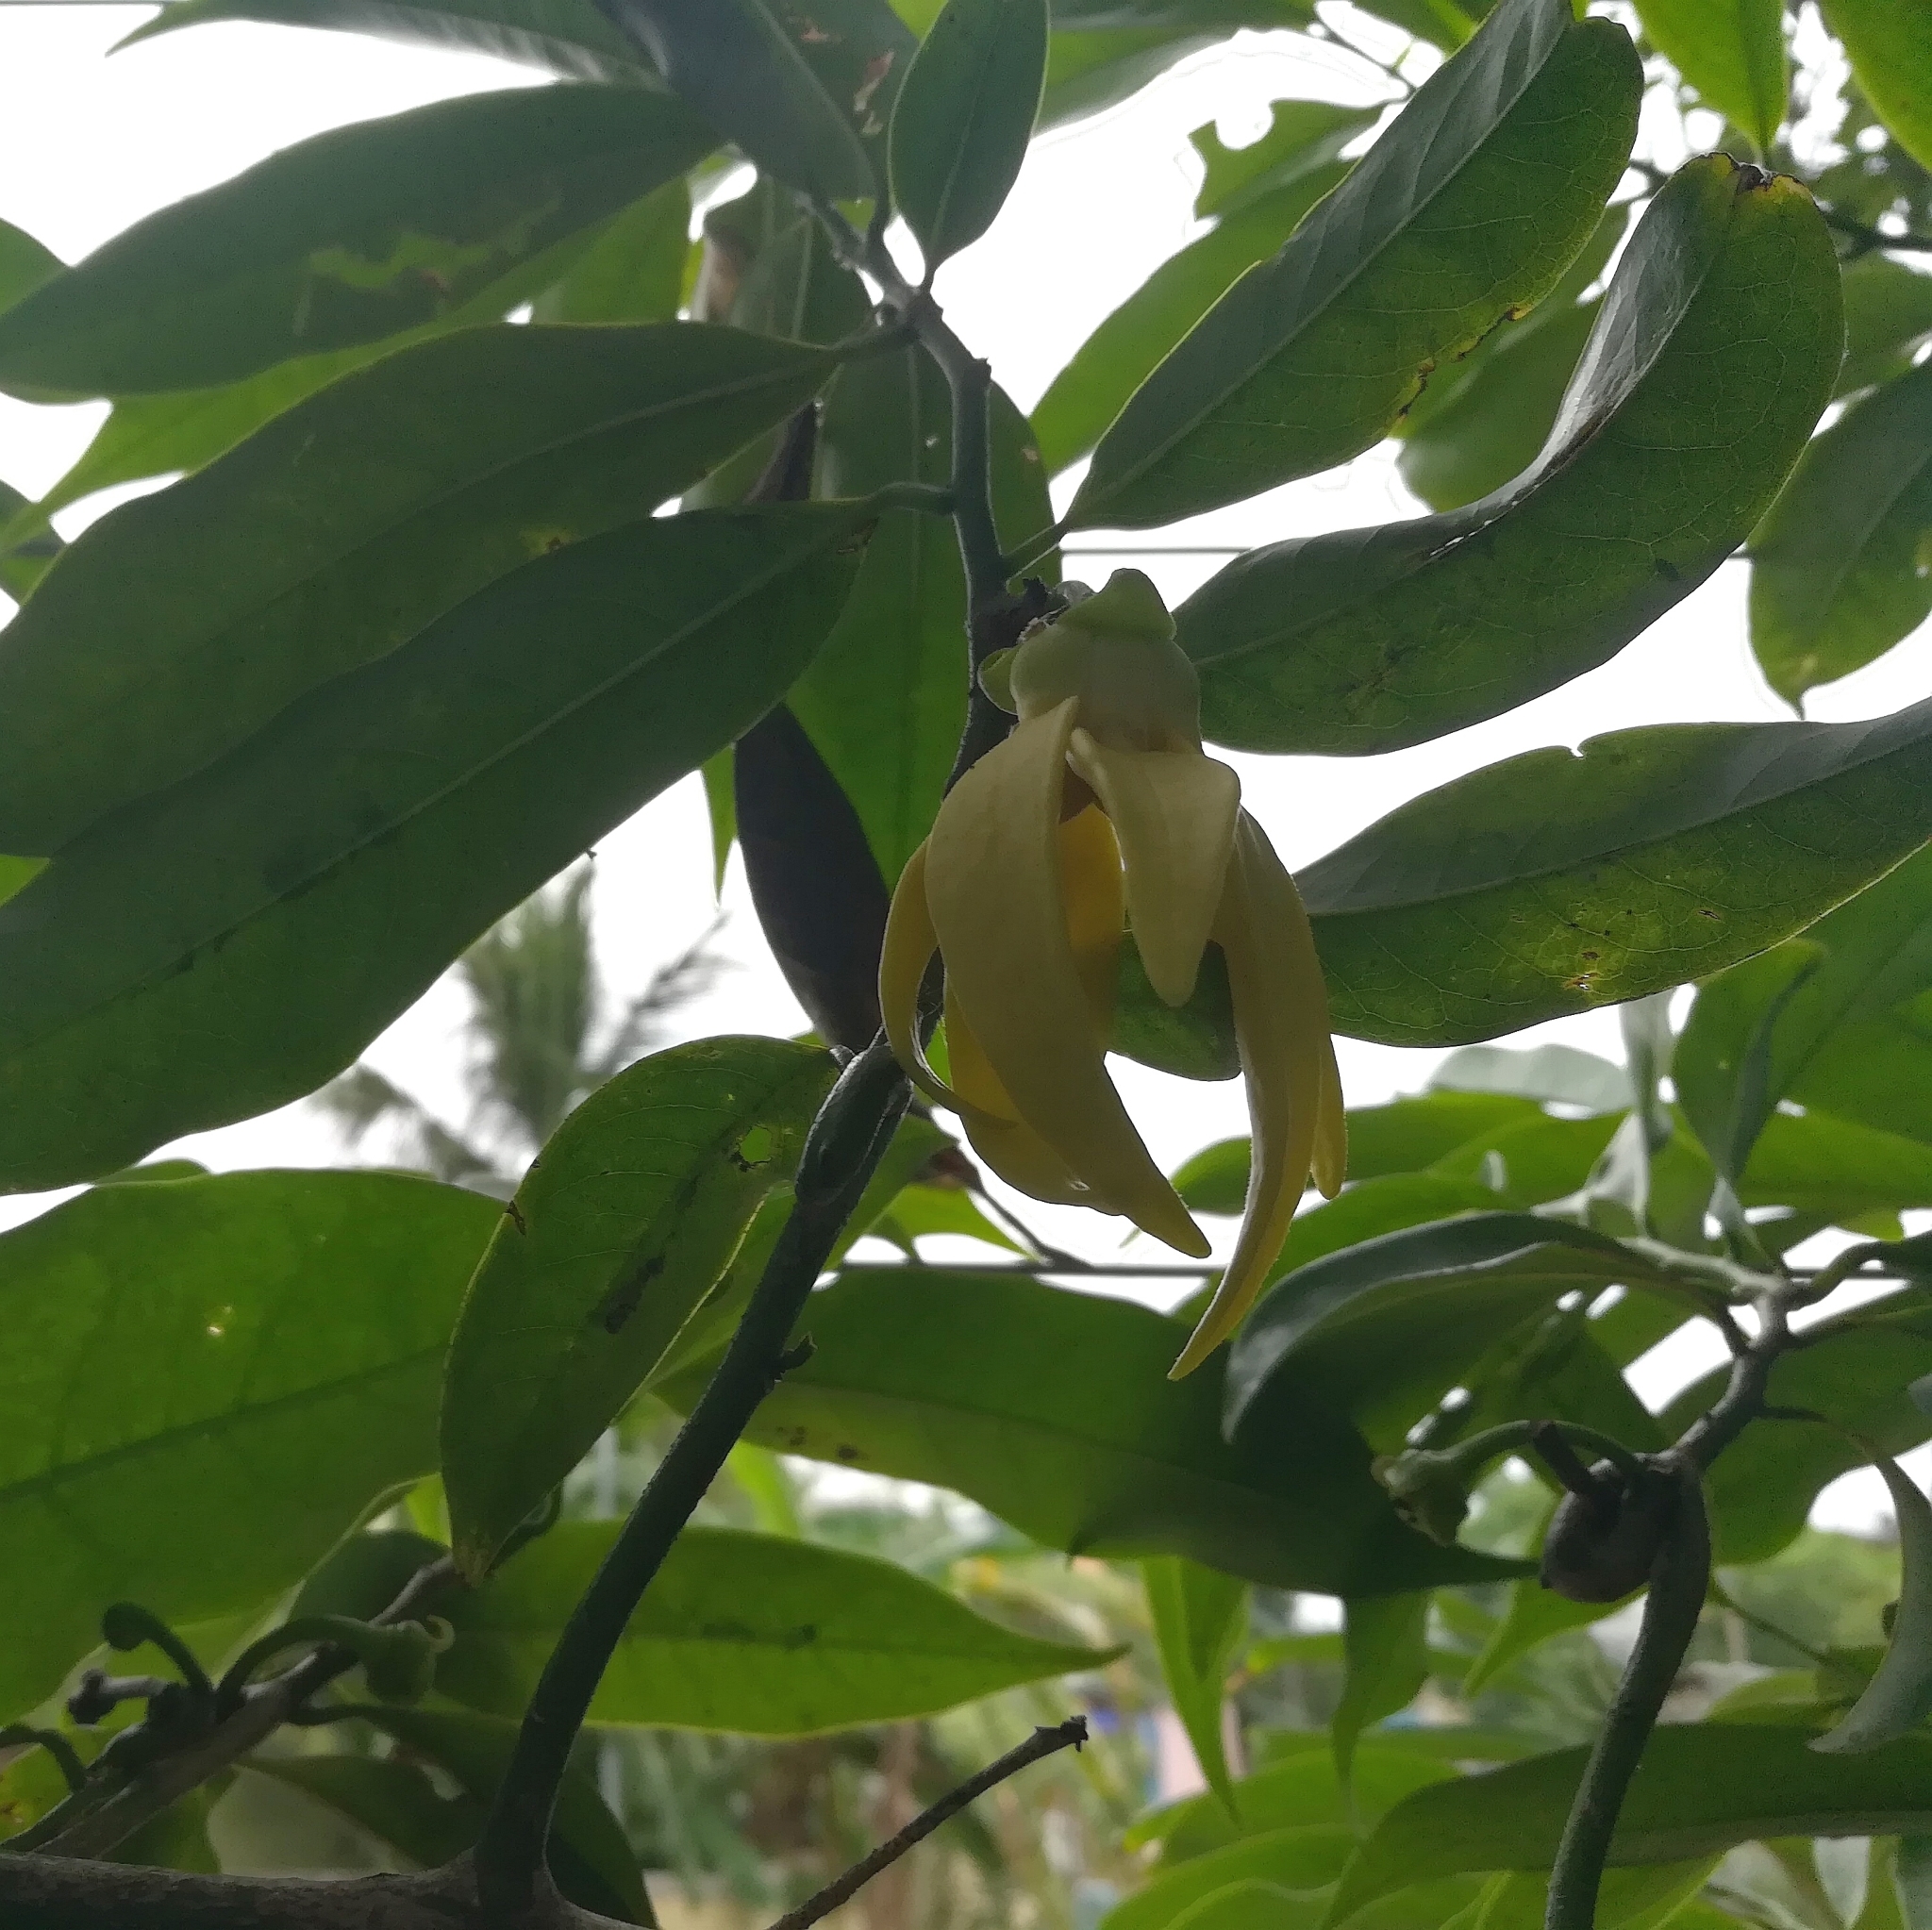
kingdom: Plantae
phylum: Tracheophyta
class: Magnoliopsida
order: Magnoliales
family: Annonaceae
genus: Artabotrys
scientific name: Artabotrys hexapetalus
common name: Climbing ilang-ilang
